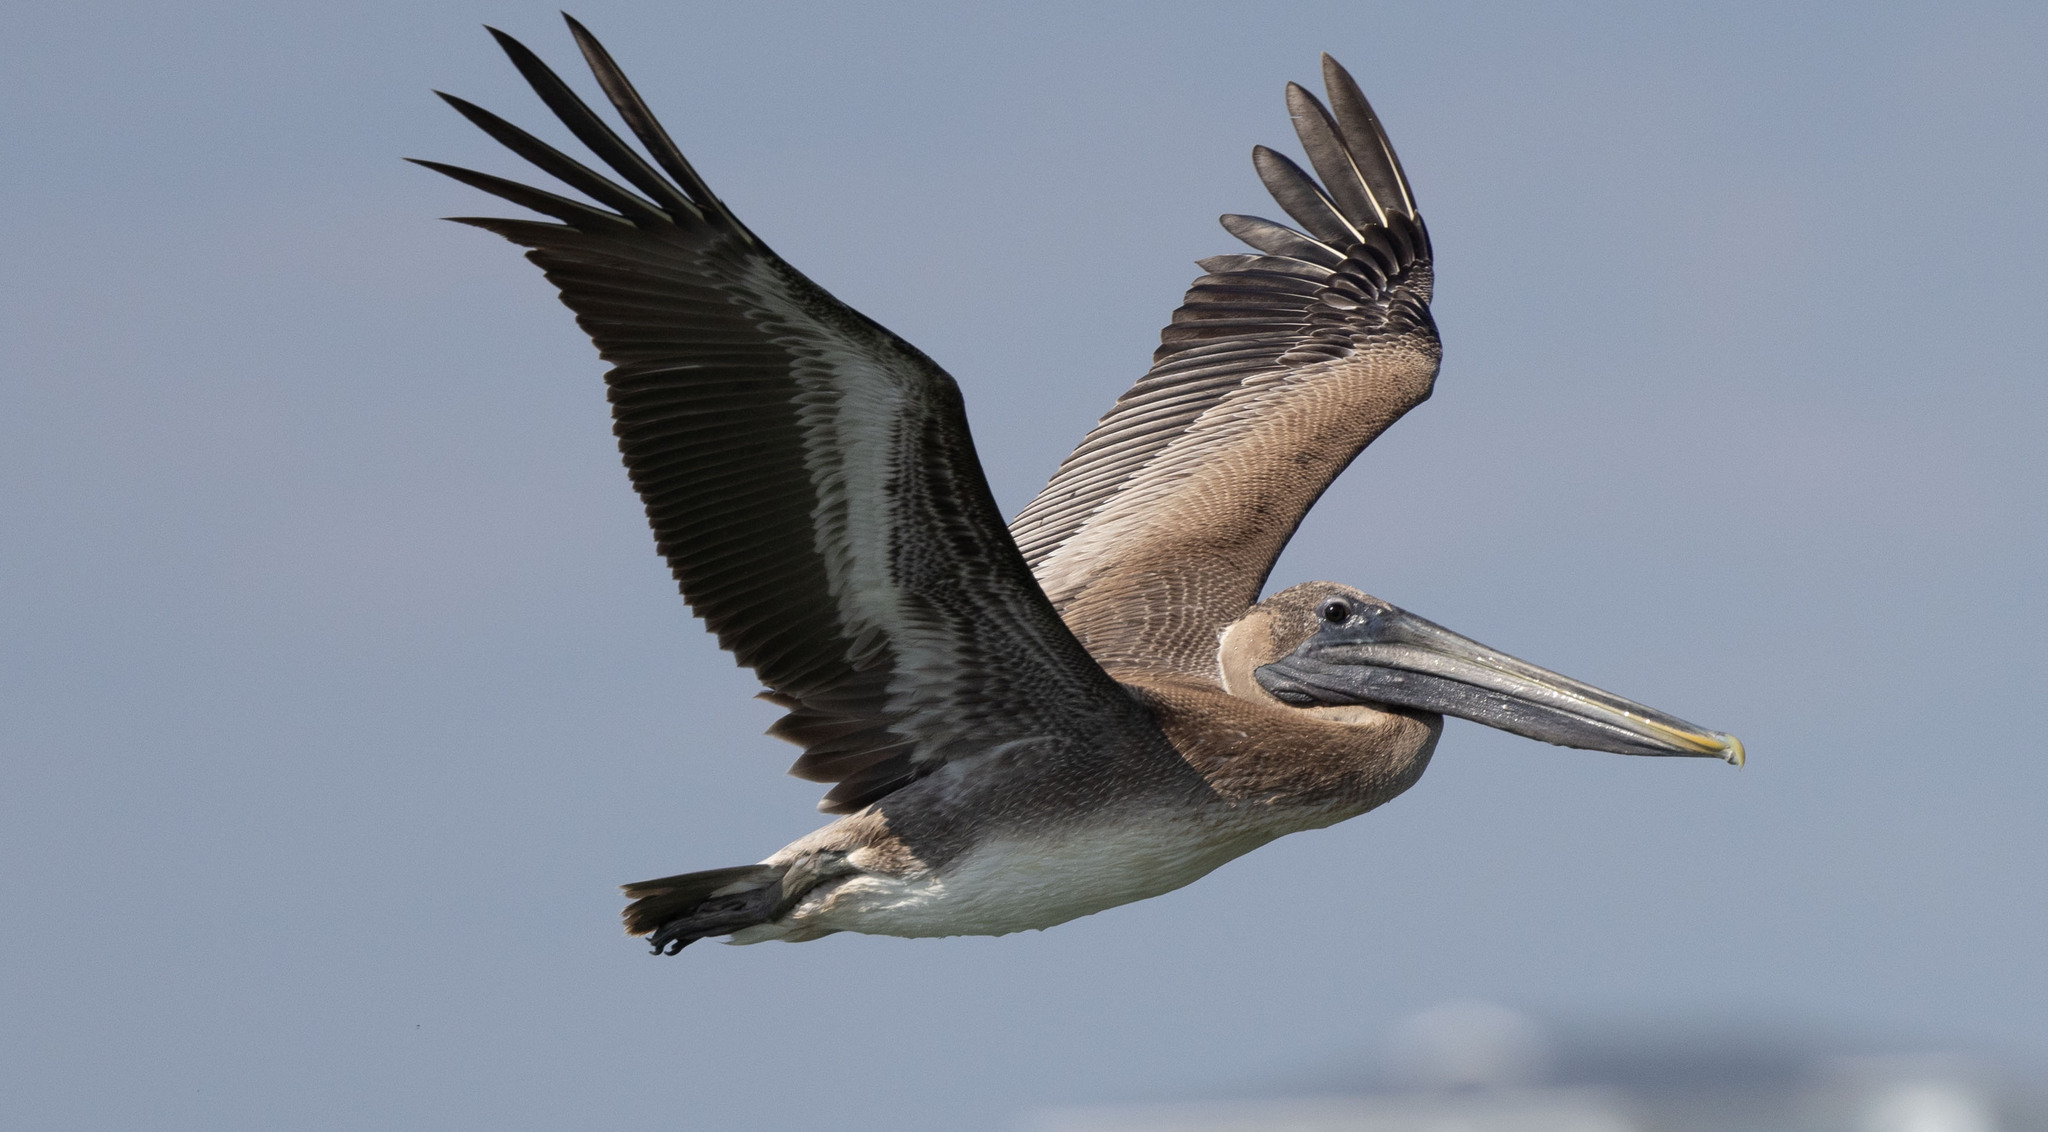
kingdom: Animalia
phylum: Chordata
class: Aves
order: Pelecaniformes
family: Pelecanidae
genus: Pelecanus
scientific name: Pelecanus occidentalis
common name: Brown pelican
